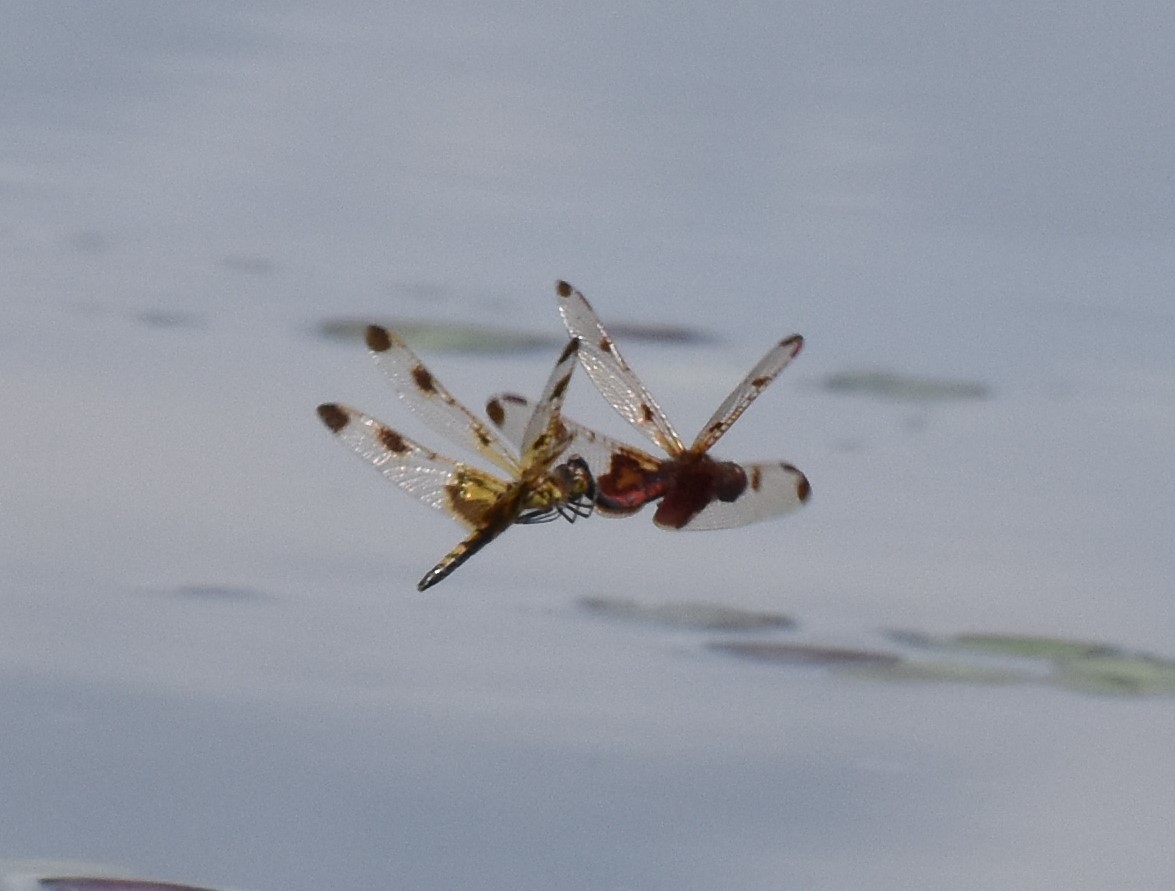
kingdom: Animalia
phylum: Arthropoda
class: Insecta
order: Odonata
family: Libellulidae
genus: Celithemis
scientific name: Celithemis elisa
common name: Calico pennant
